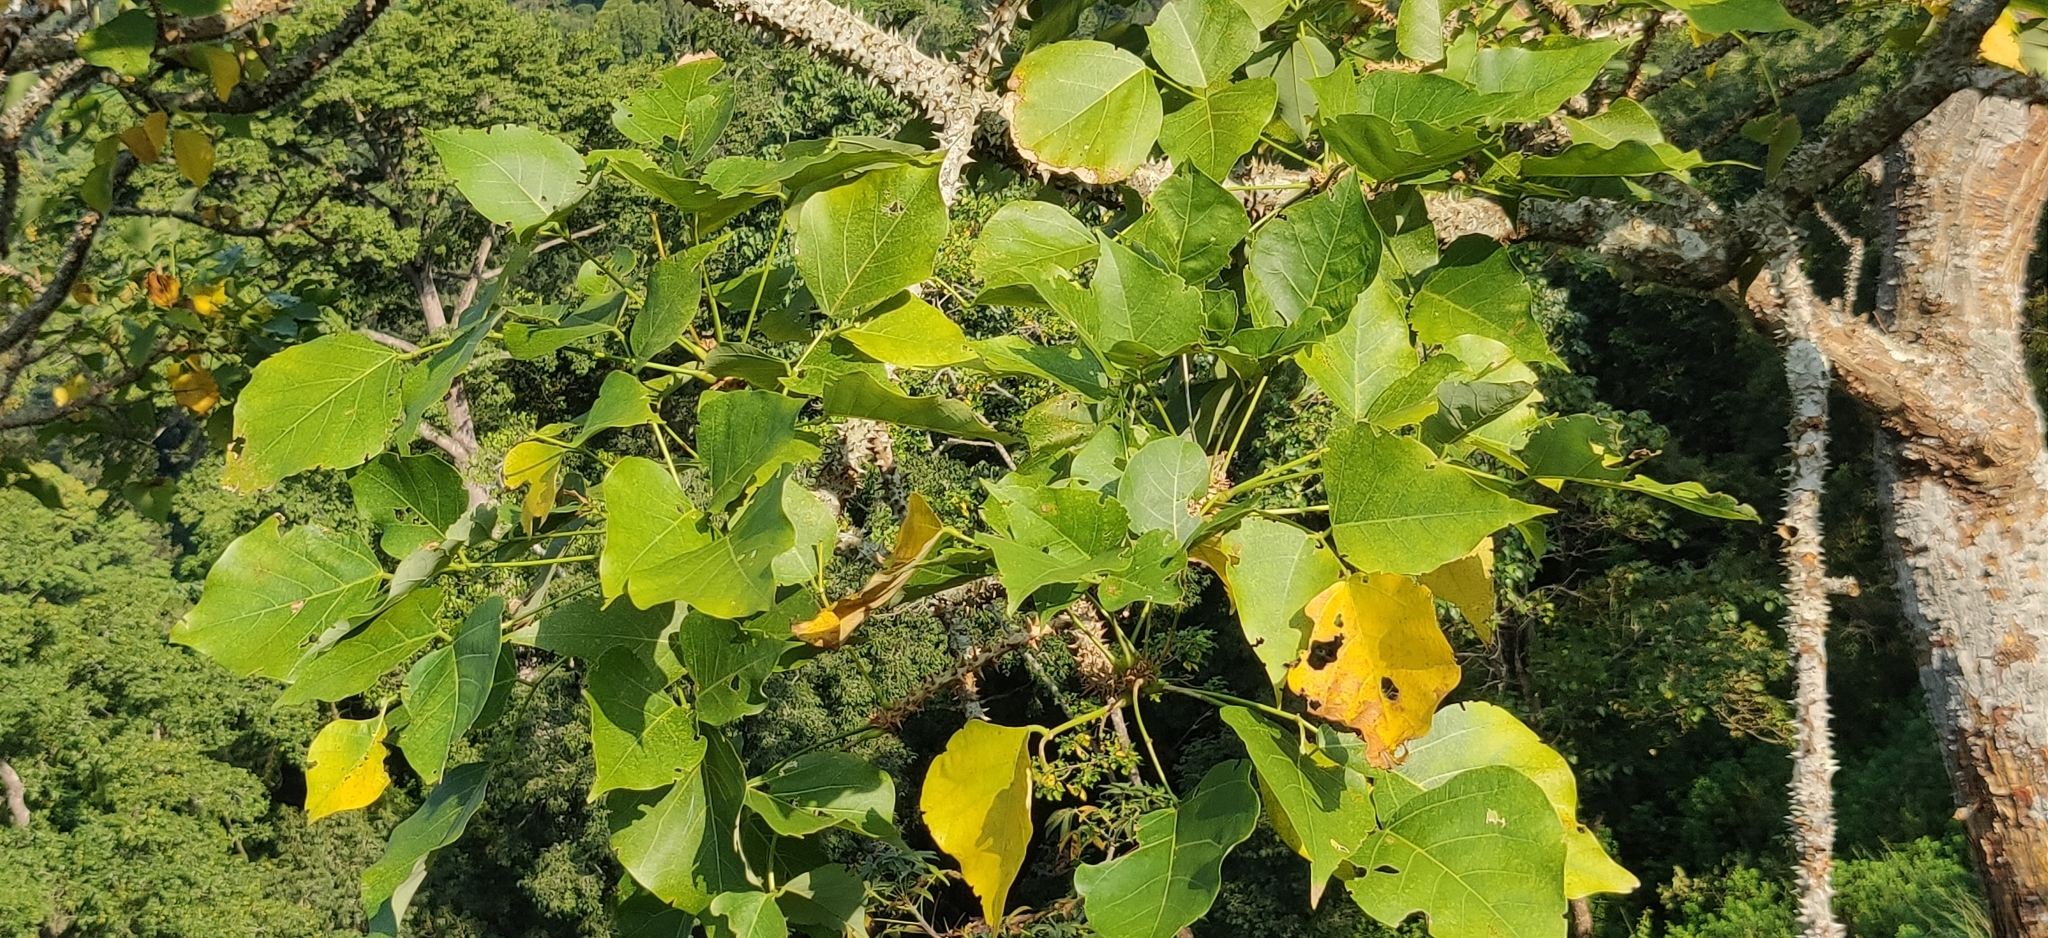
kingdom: Plantae
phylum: Tracheophyta
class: Magnoliopsida
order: Fabales
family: Fabaceae
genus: Erythrina
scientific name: Erythrina variegata
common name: Indian coral tree
